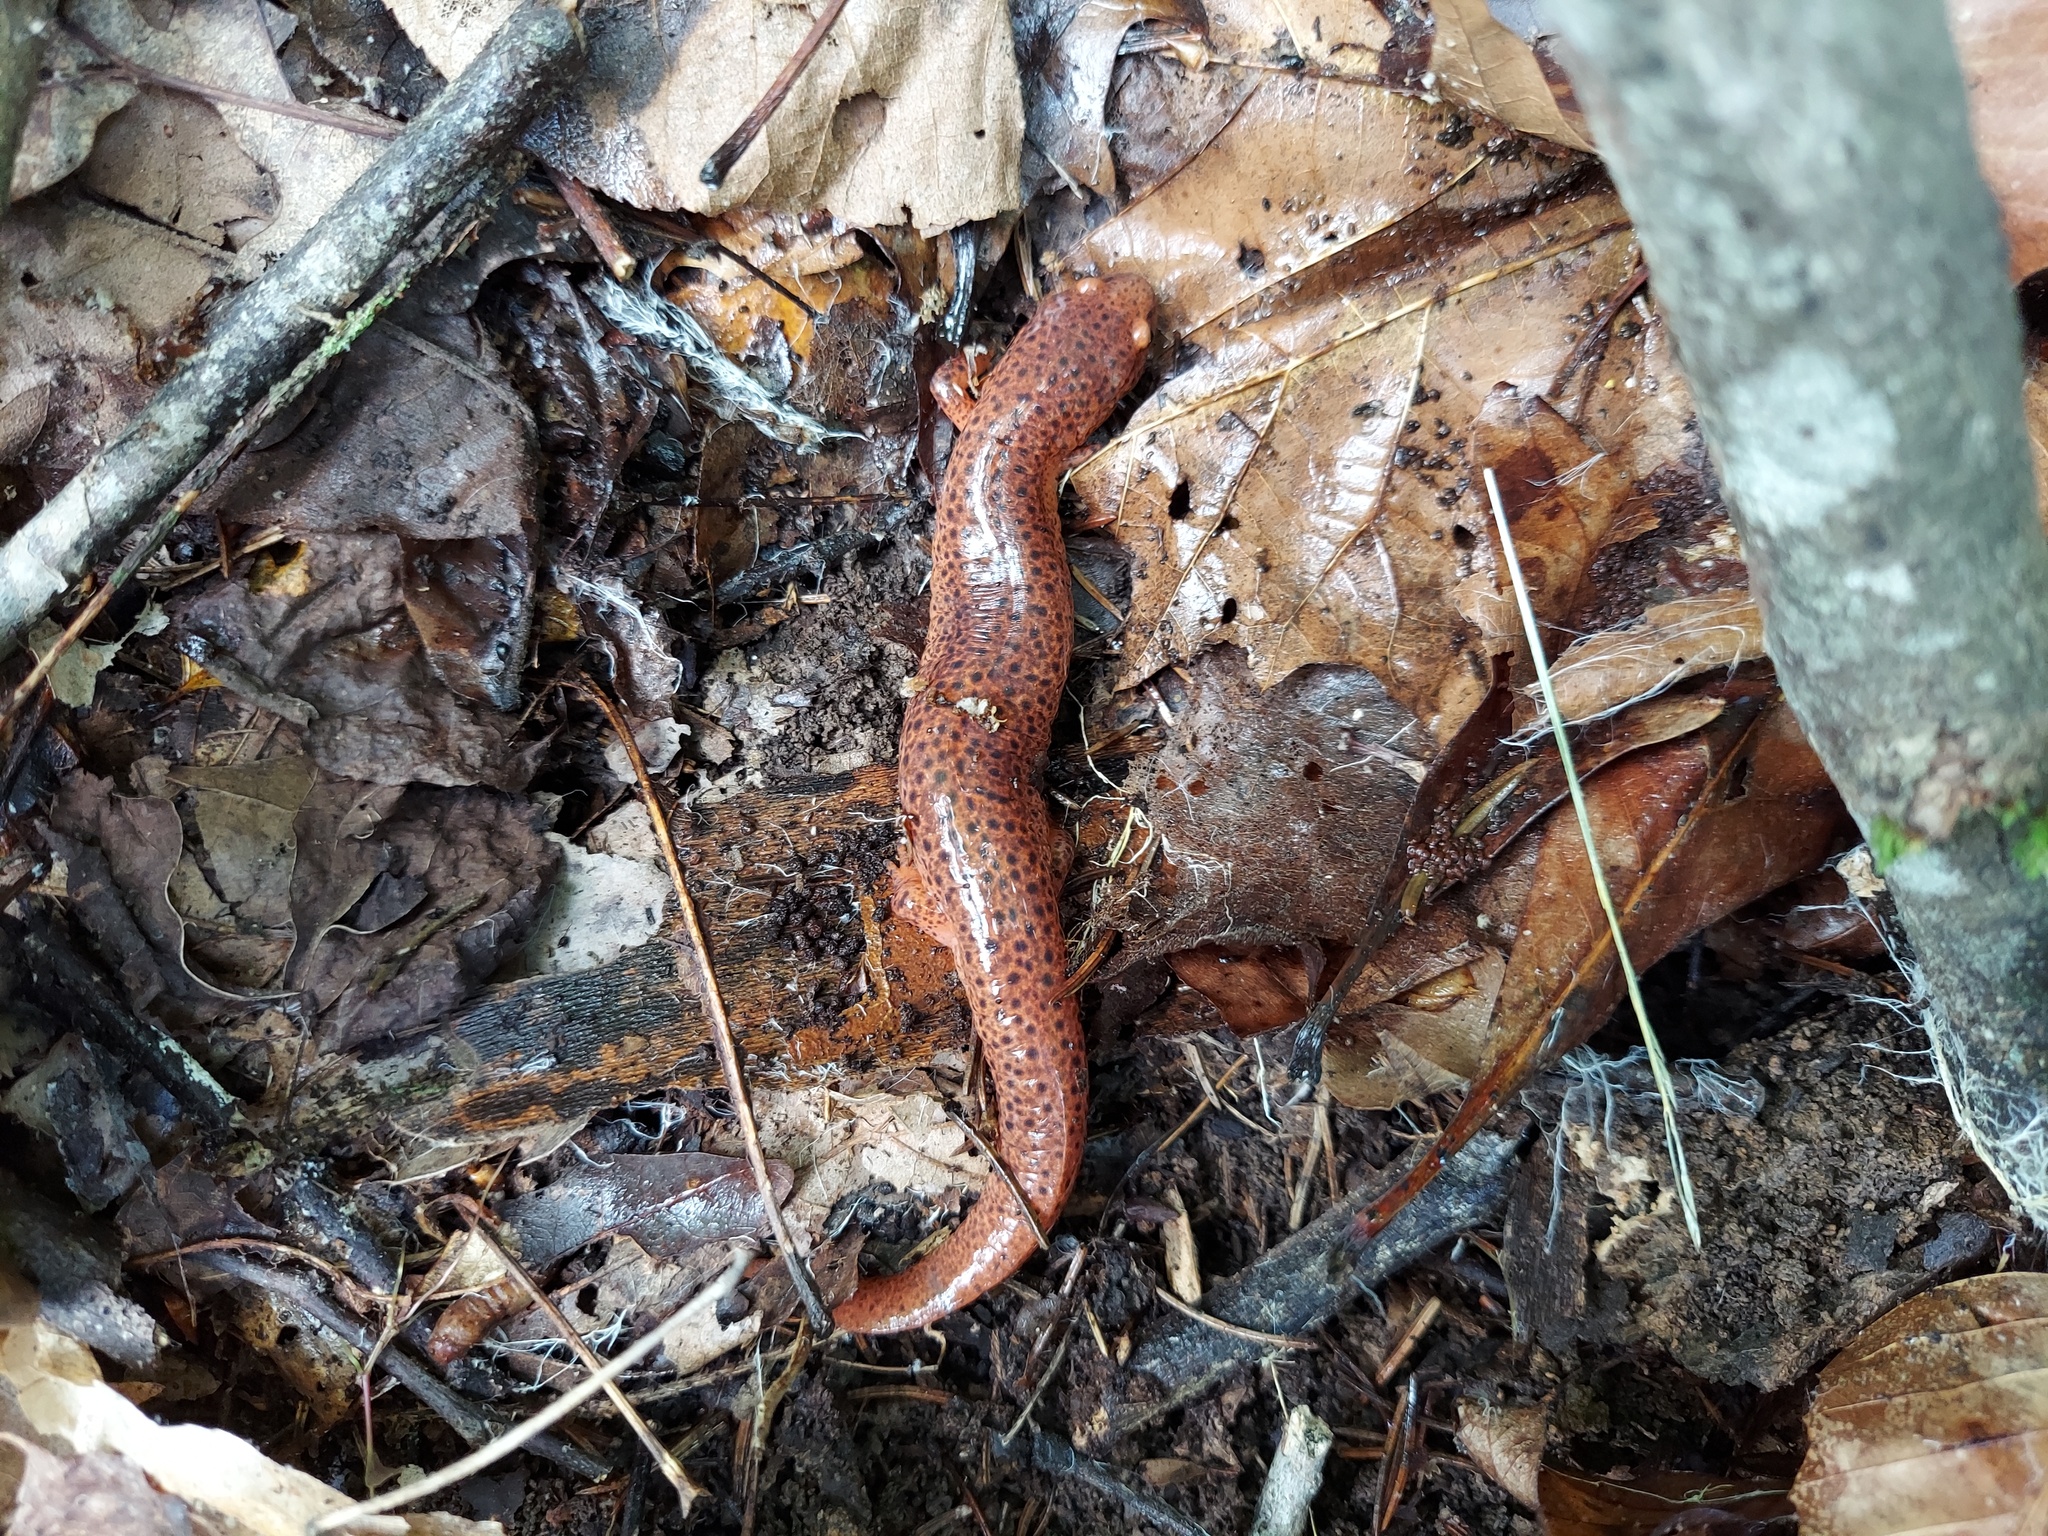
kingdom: Animalia
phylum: Chordata
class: Amphibia
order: Caudata
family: Plethodontidae
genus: Pseudotriton
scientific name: Pseudotriton ruber
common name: Red salamander
